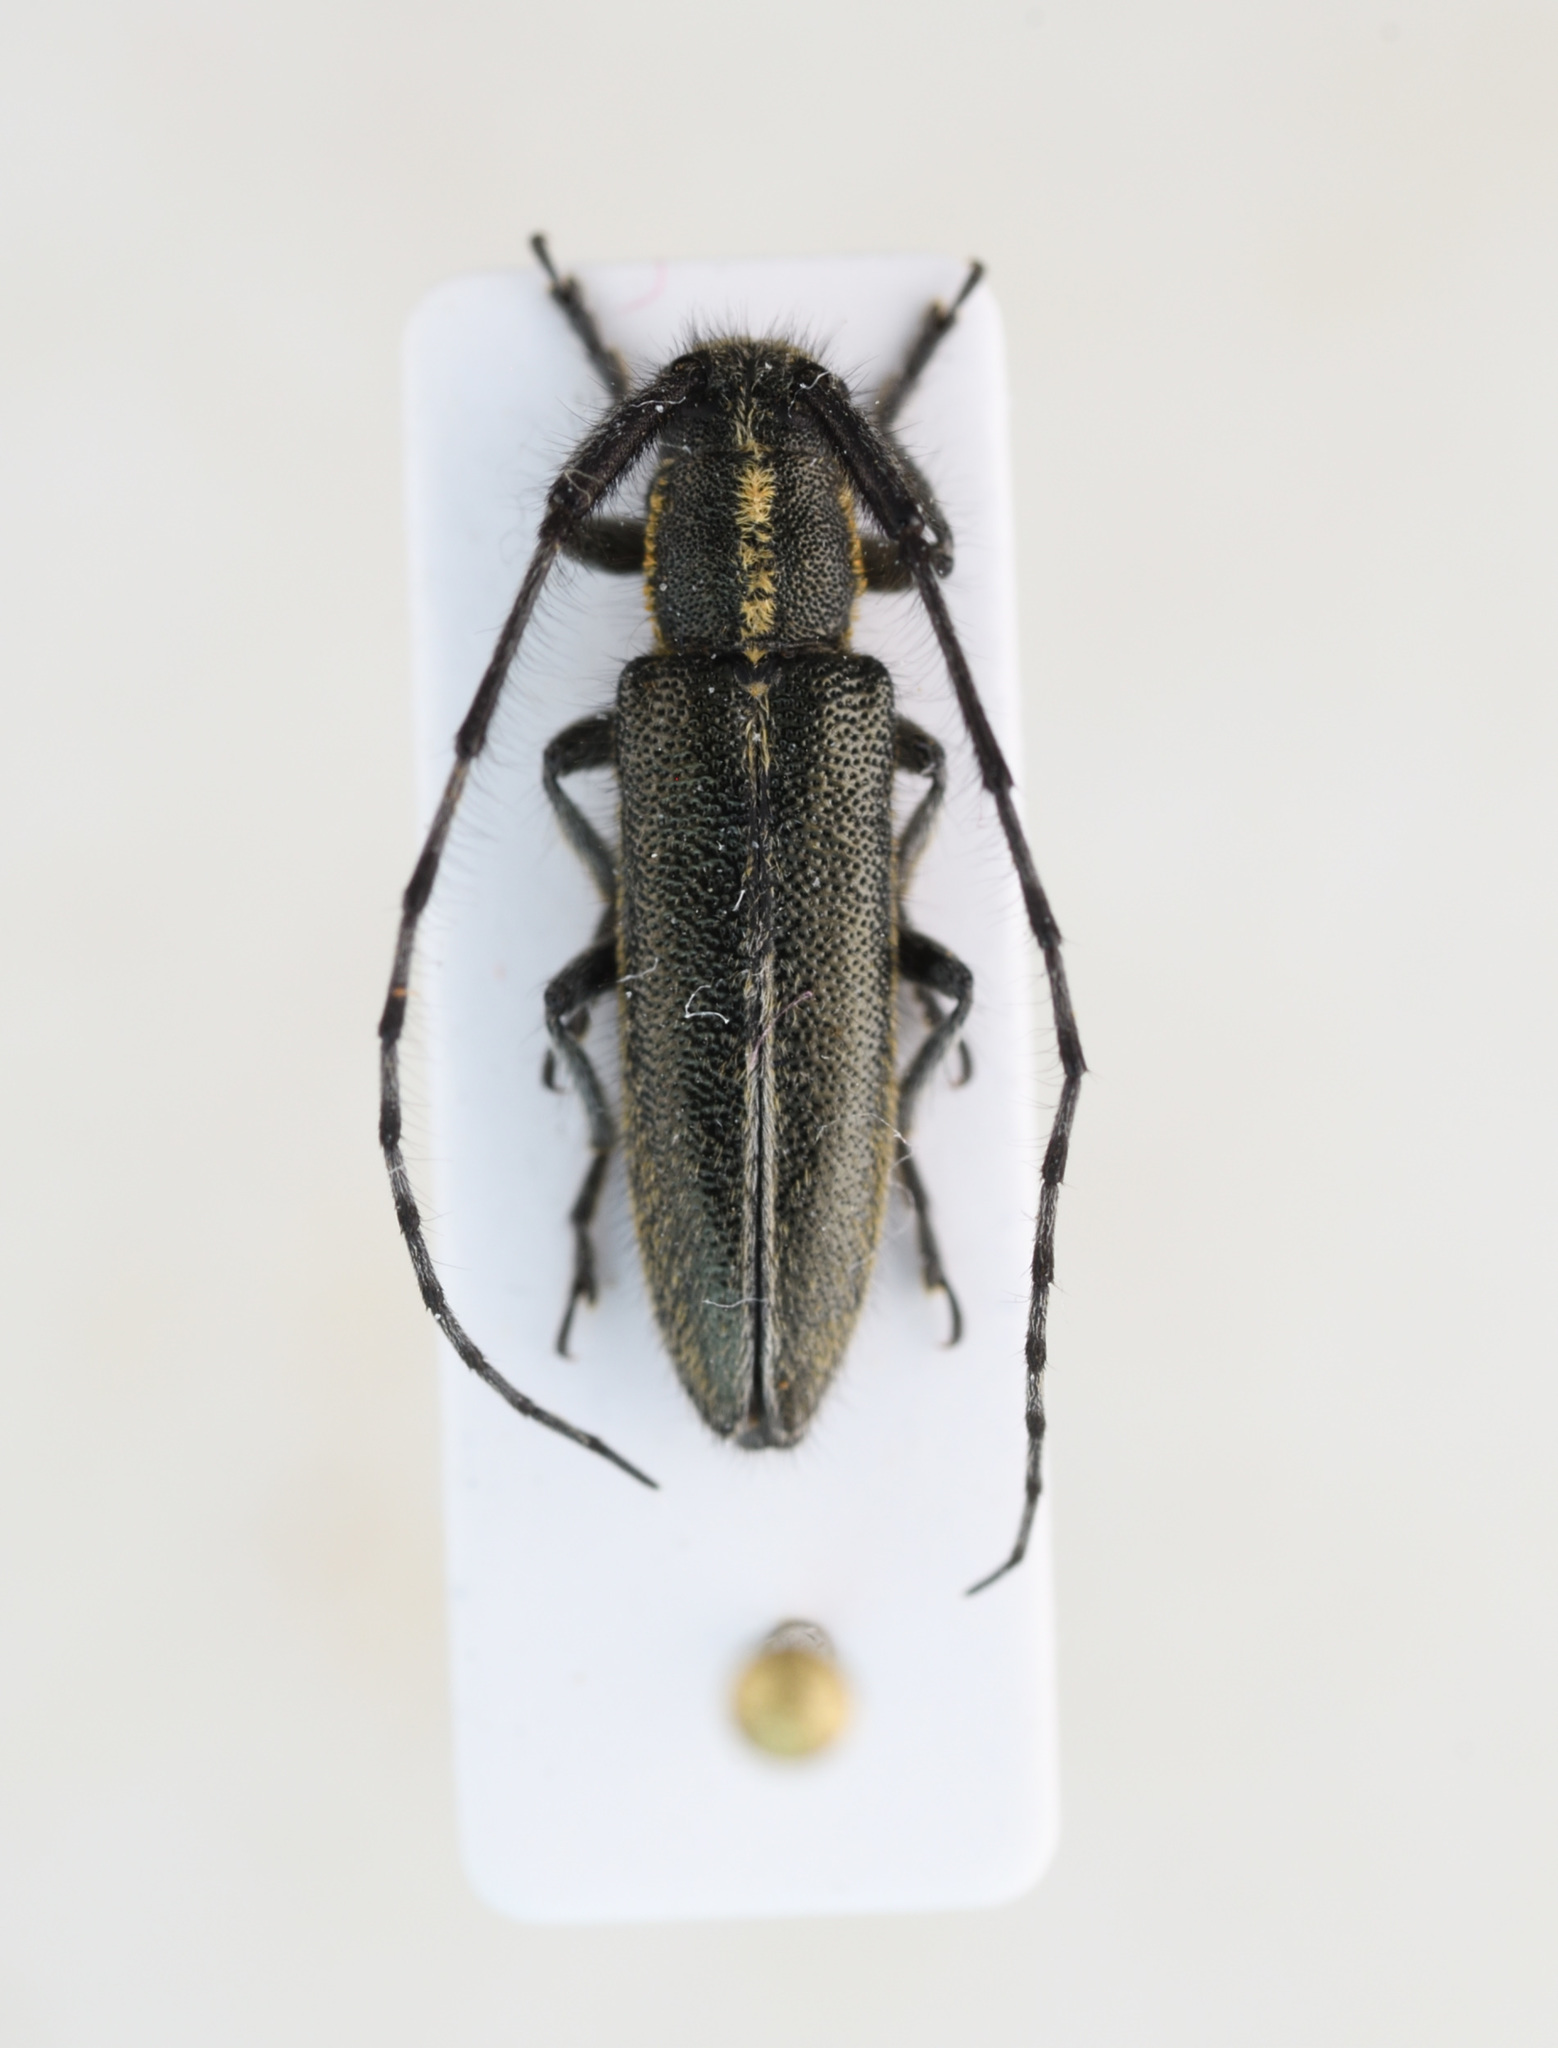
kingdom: Animalia
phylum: Arthropoda
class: Insecta
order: Coleoptera
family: Cerambycidae
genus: Agapanthia
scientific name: Agapanthia cardui
